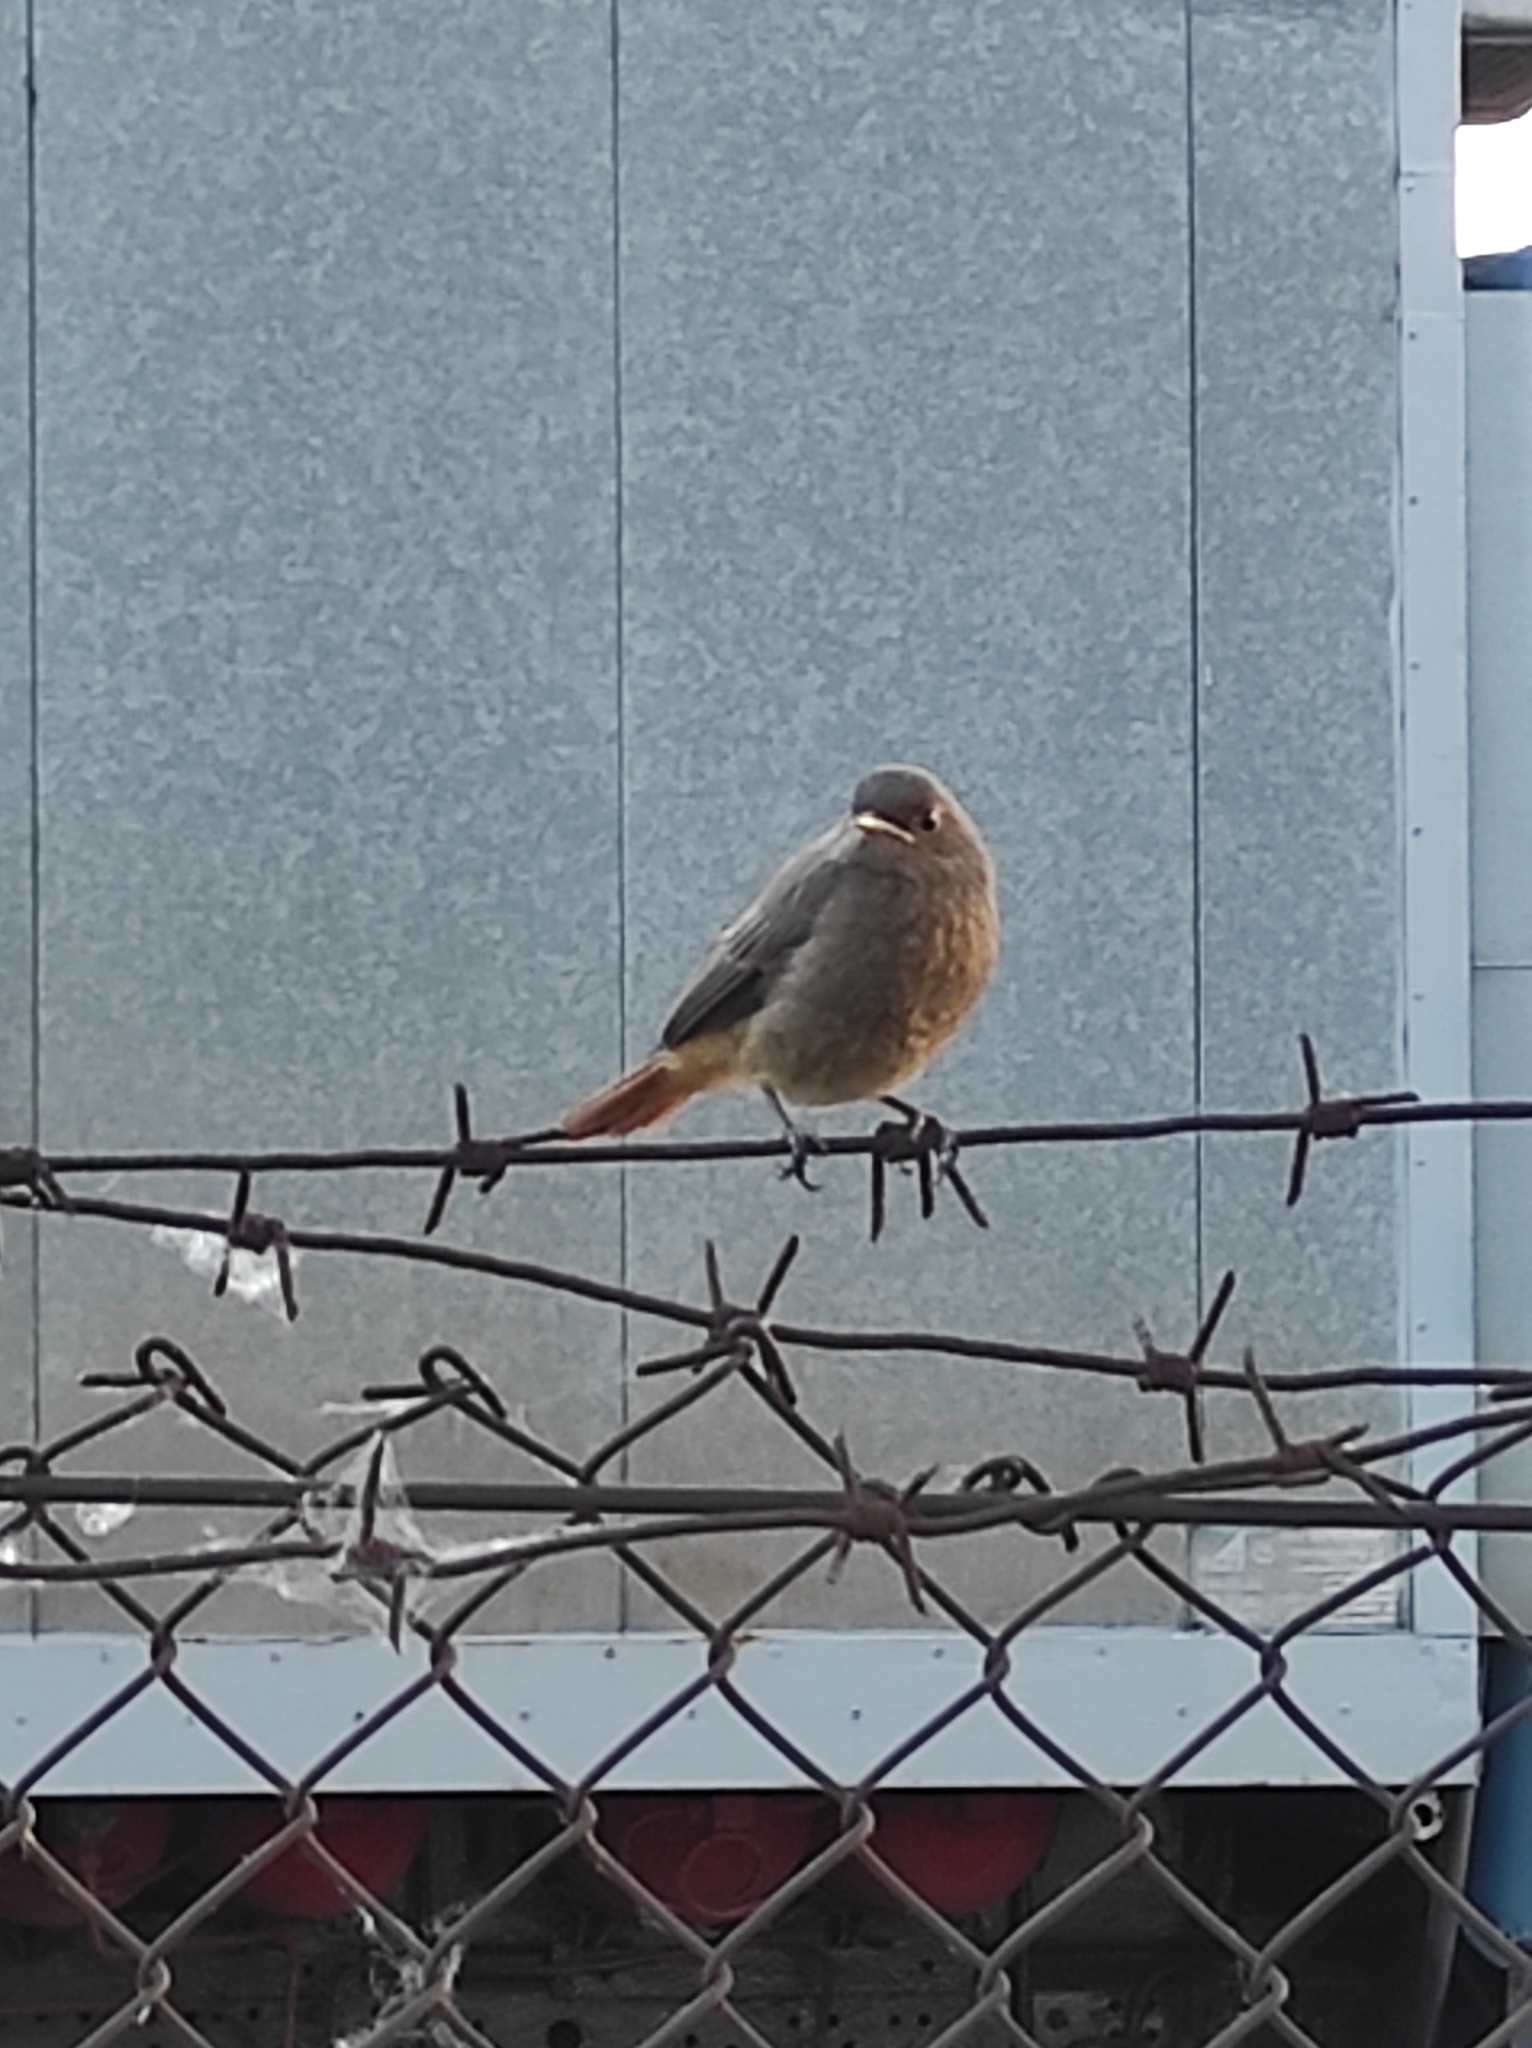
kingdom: Animalia
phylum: Chordata
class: Aves
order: Passeriformes
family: Muscicapidae
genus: Phoenicurus
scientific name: Phoenicurus ochruros
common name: Black redstart
